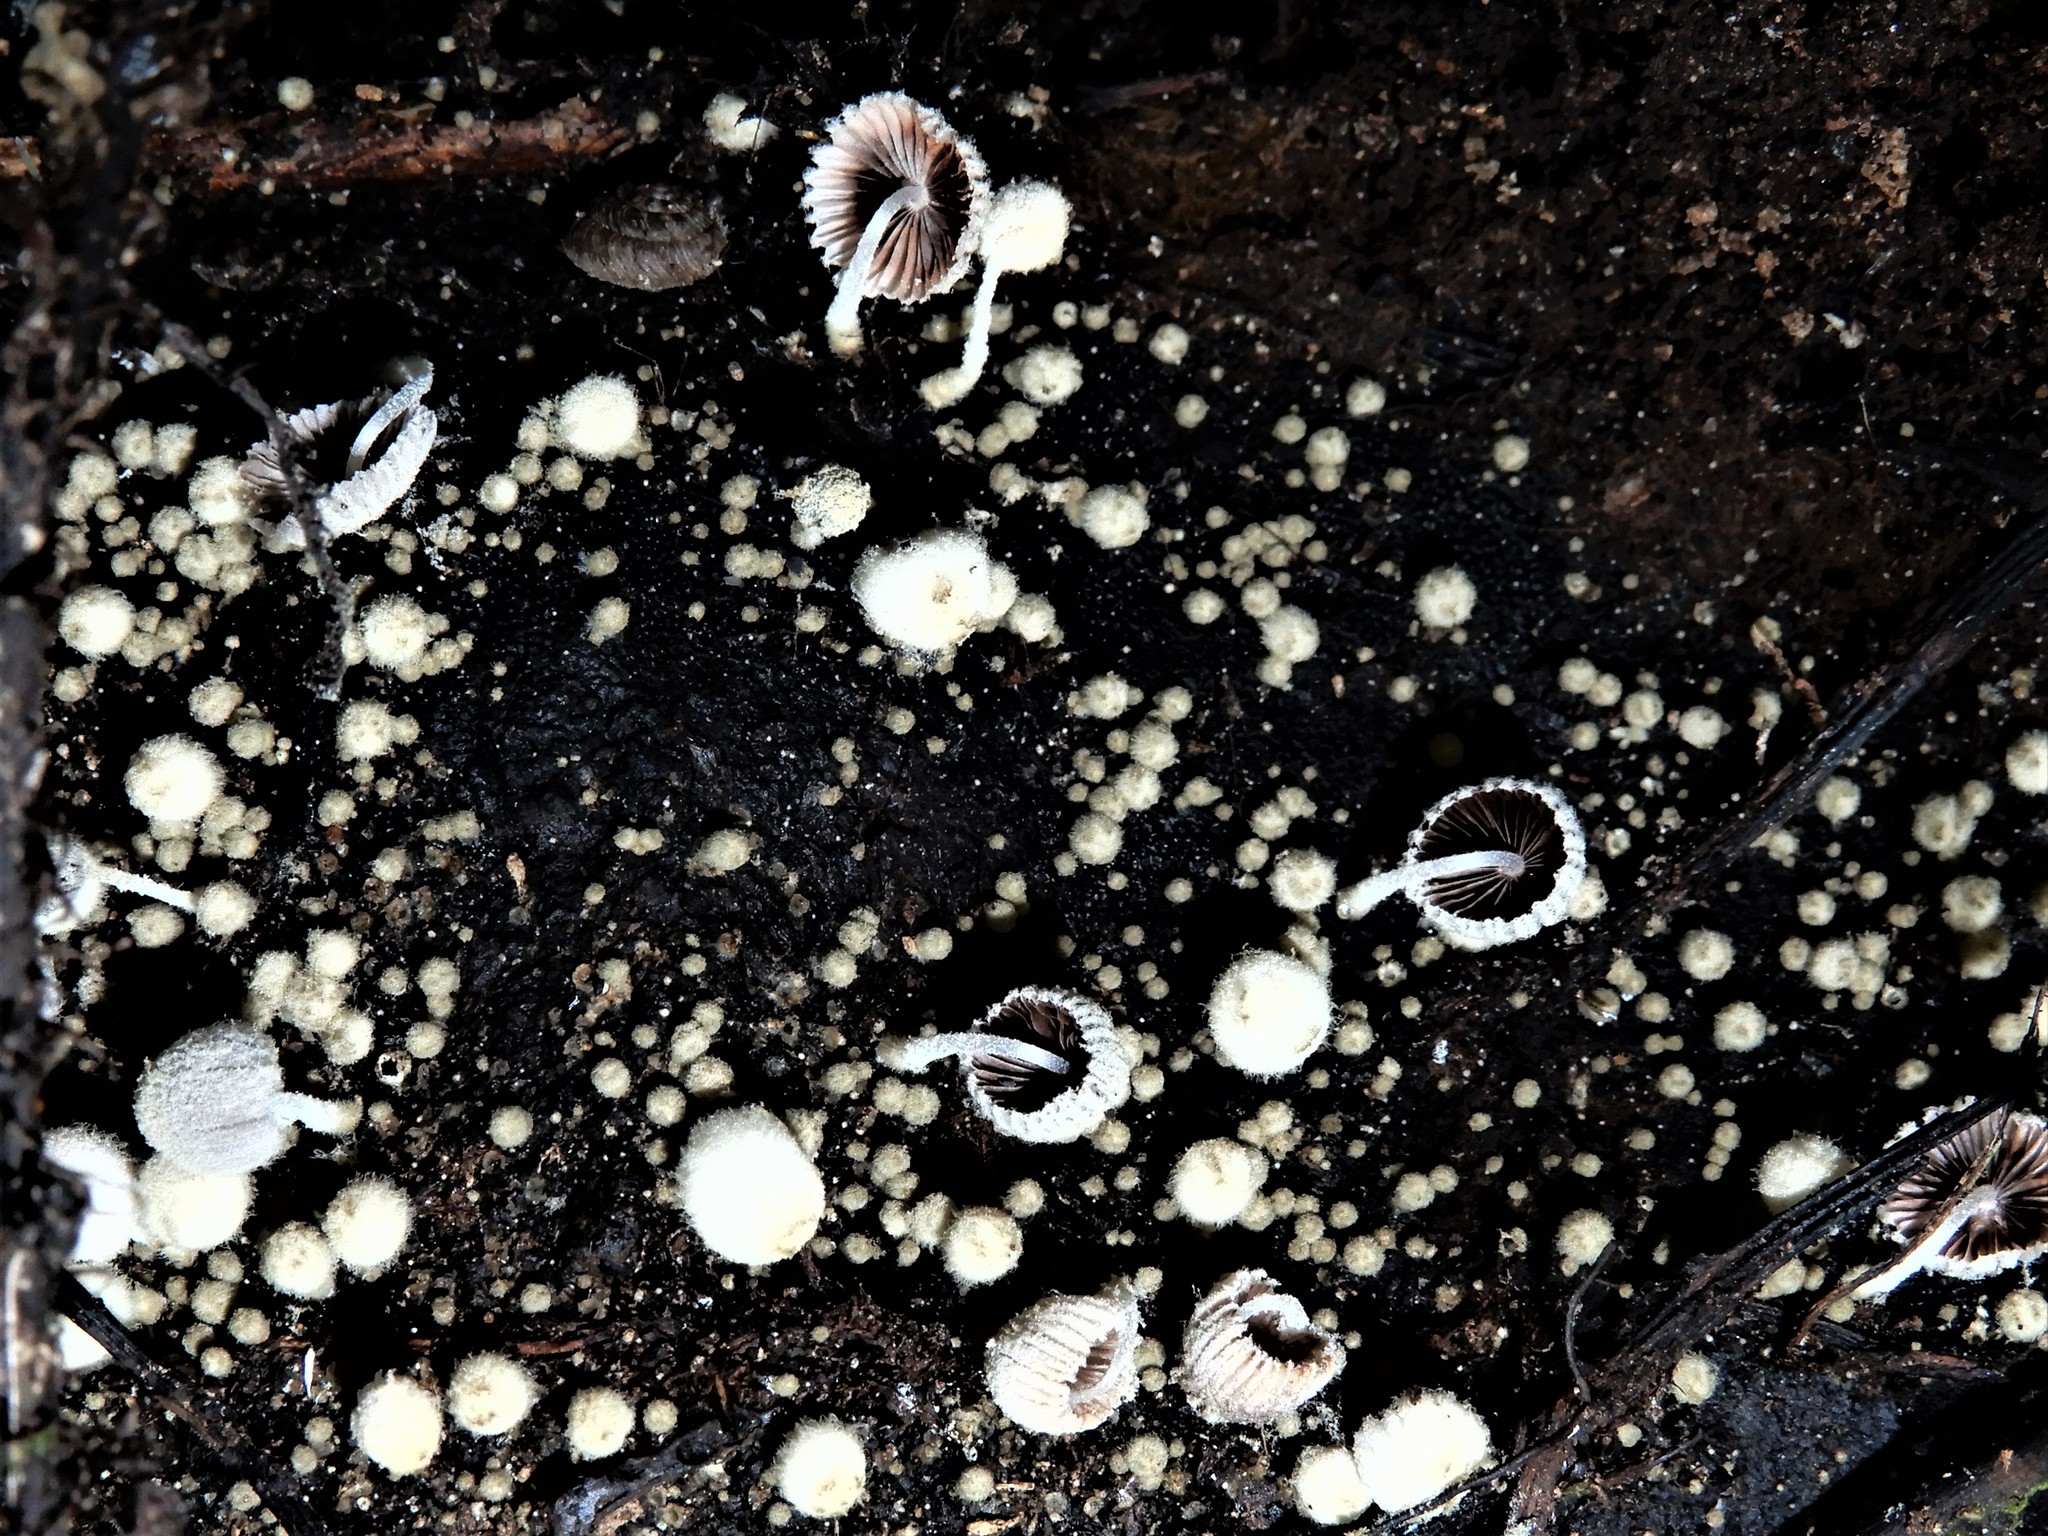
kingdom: Fungi
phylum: Basidiomycota
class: Agaricomycetes
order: Agaricales
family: Psathyrellaceae
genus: Coprinopsis
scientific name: Coprinopsis coniophora
